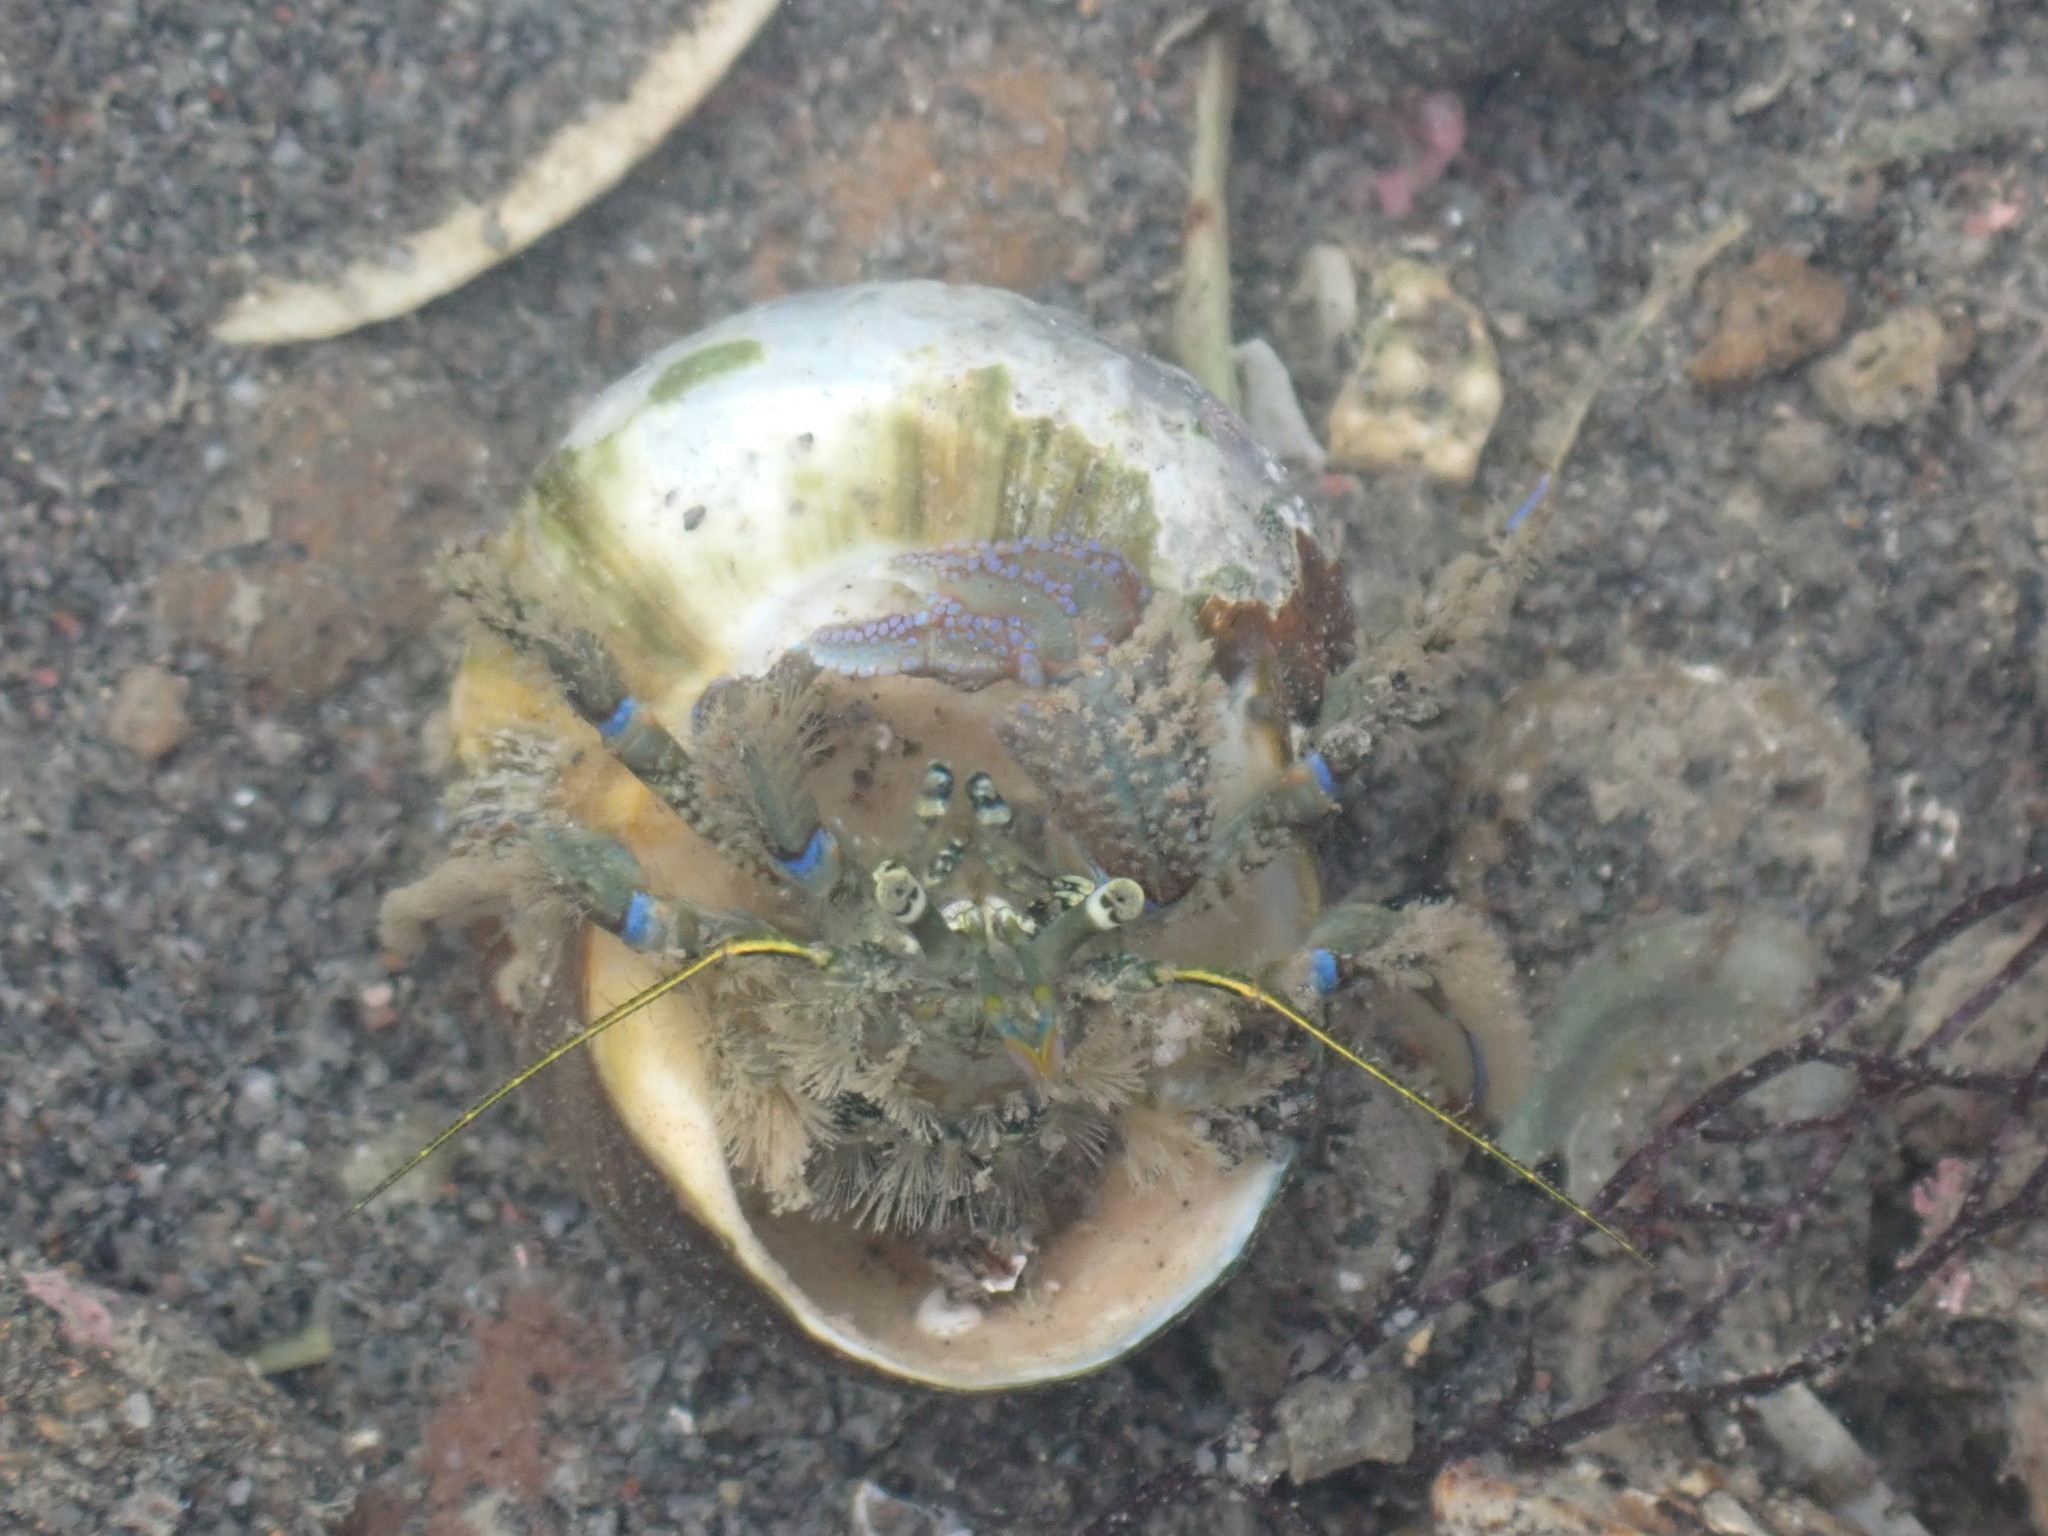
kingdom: Animalia
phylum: Arthropoda
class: Malacostraca
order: Decapoda
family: Paguridae
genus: Pagurus
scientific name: Pagurus novizealandiae
